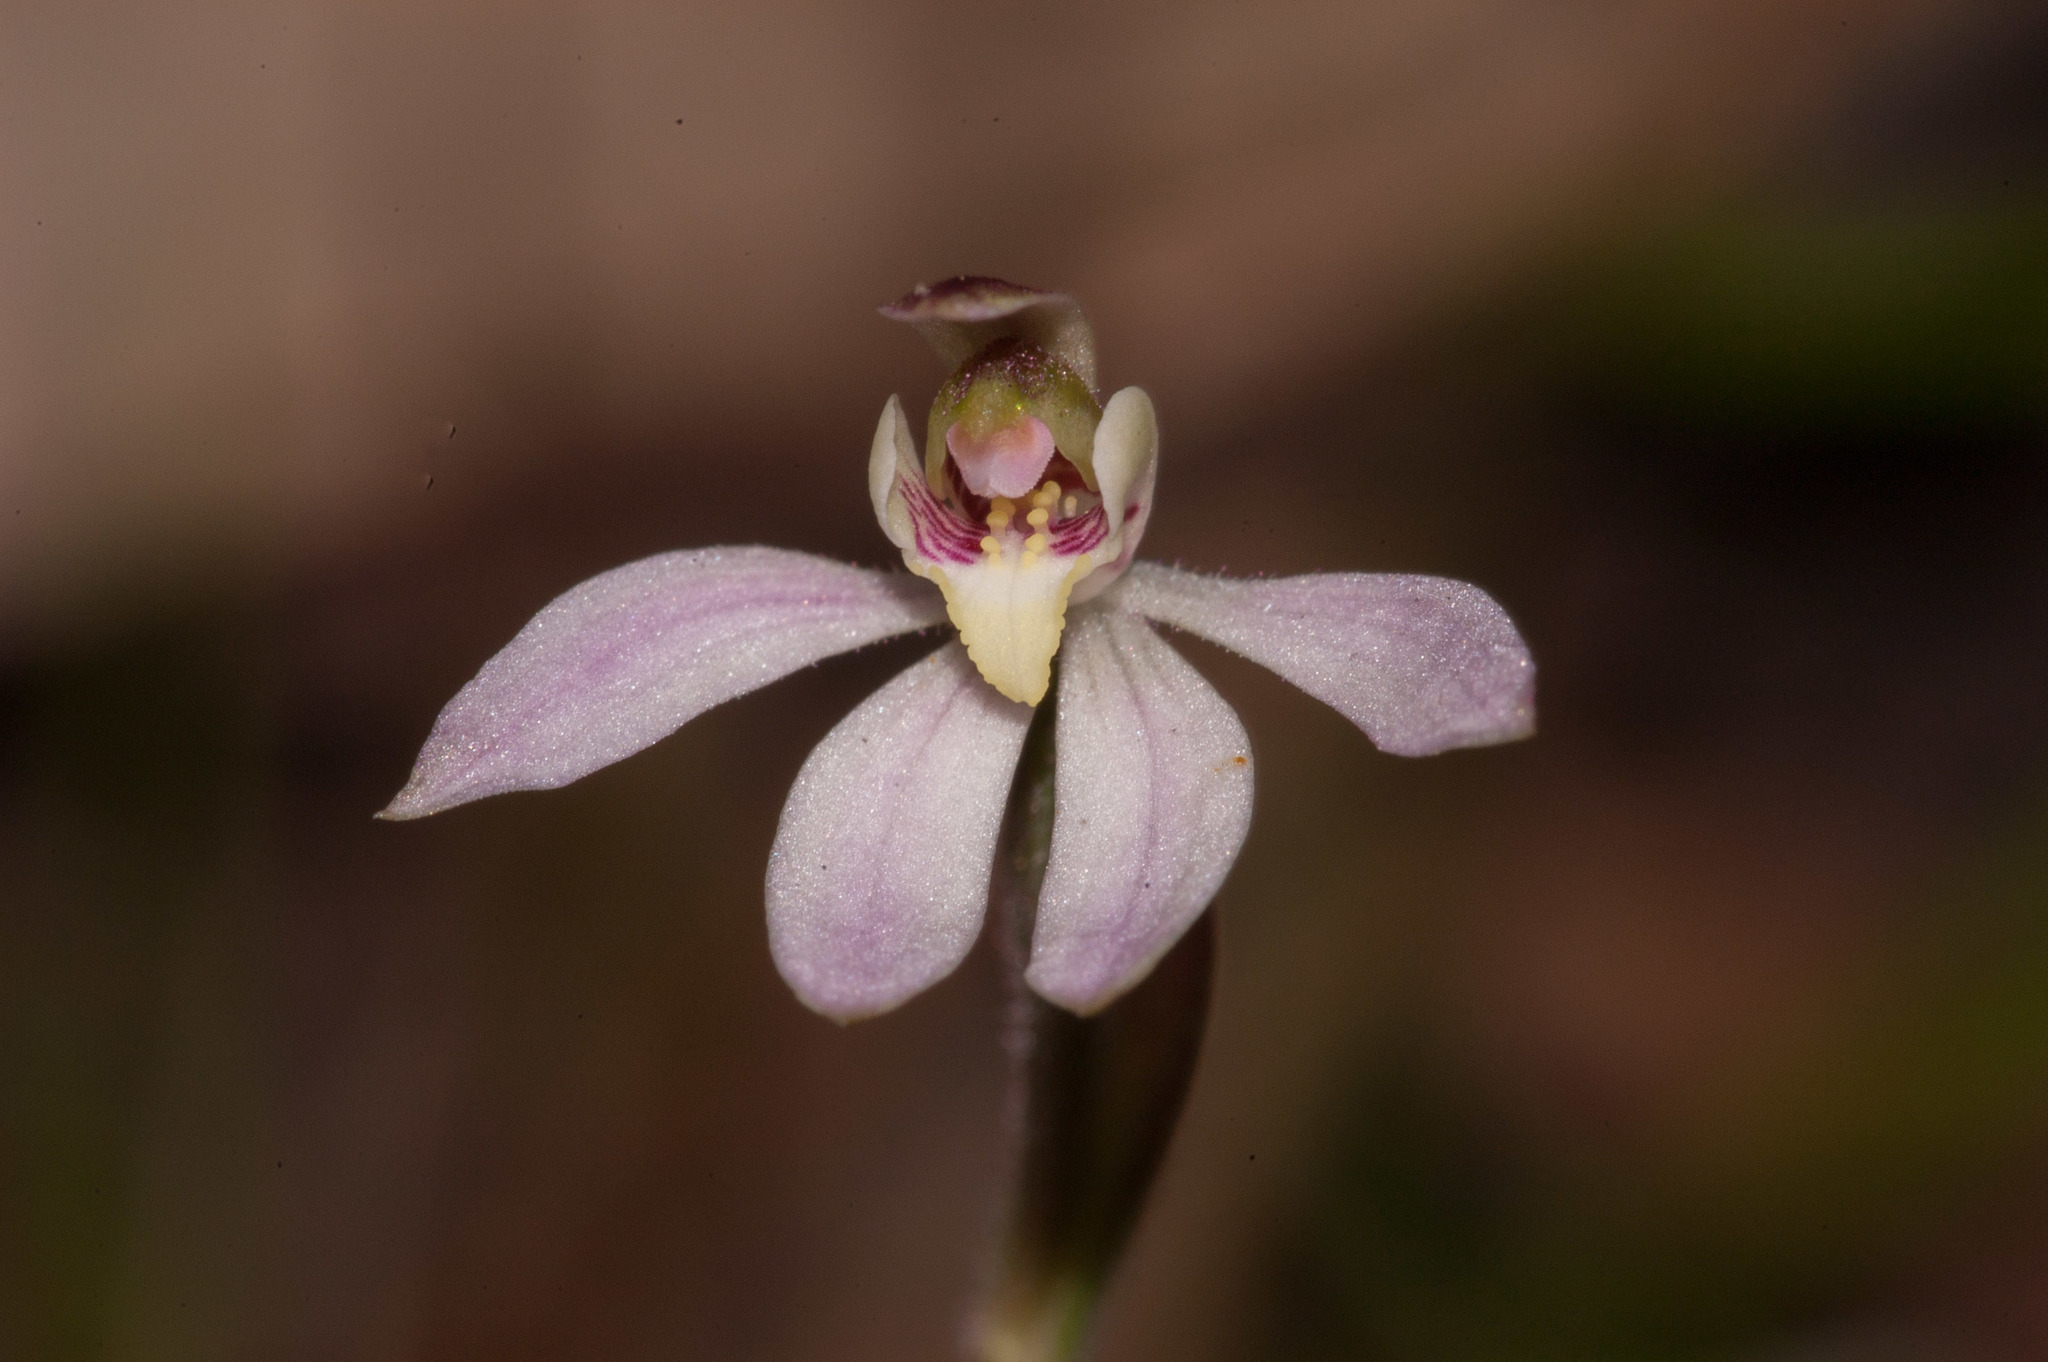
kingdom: Plantae
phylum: Tracheophyta
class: Liliopsida
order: Asparagales
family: Orchidaceae
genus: Caladenia
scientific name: Caladenia carnea
